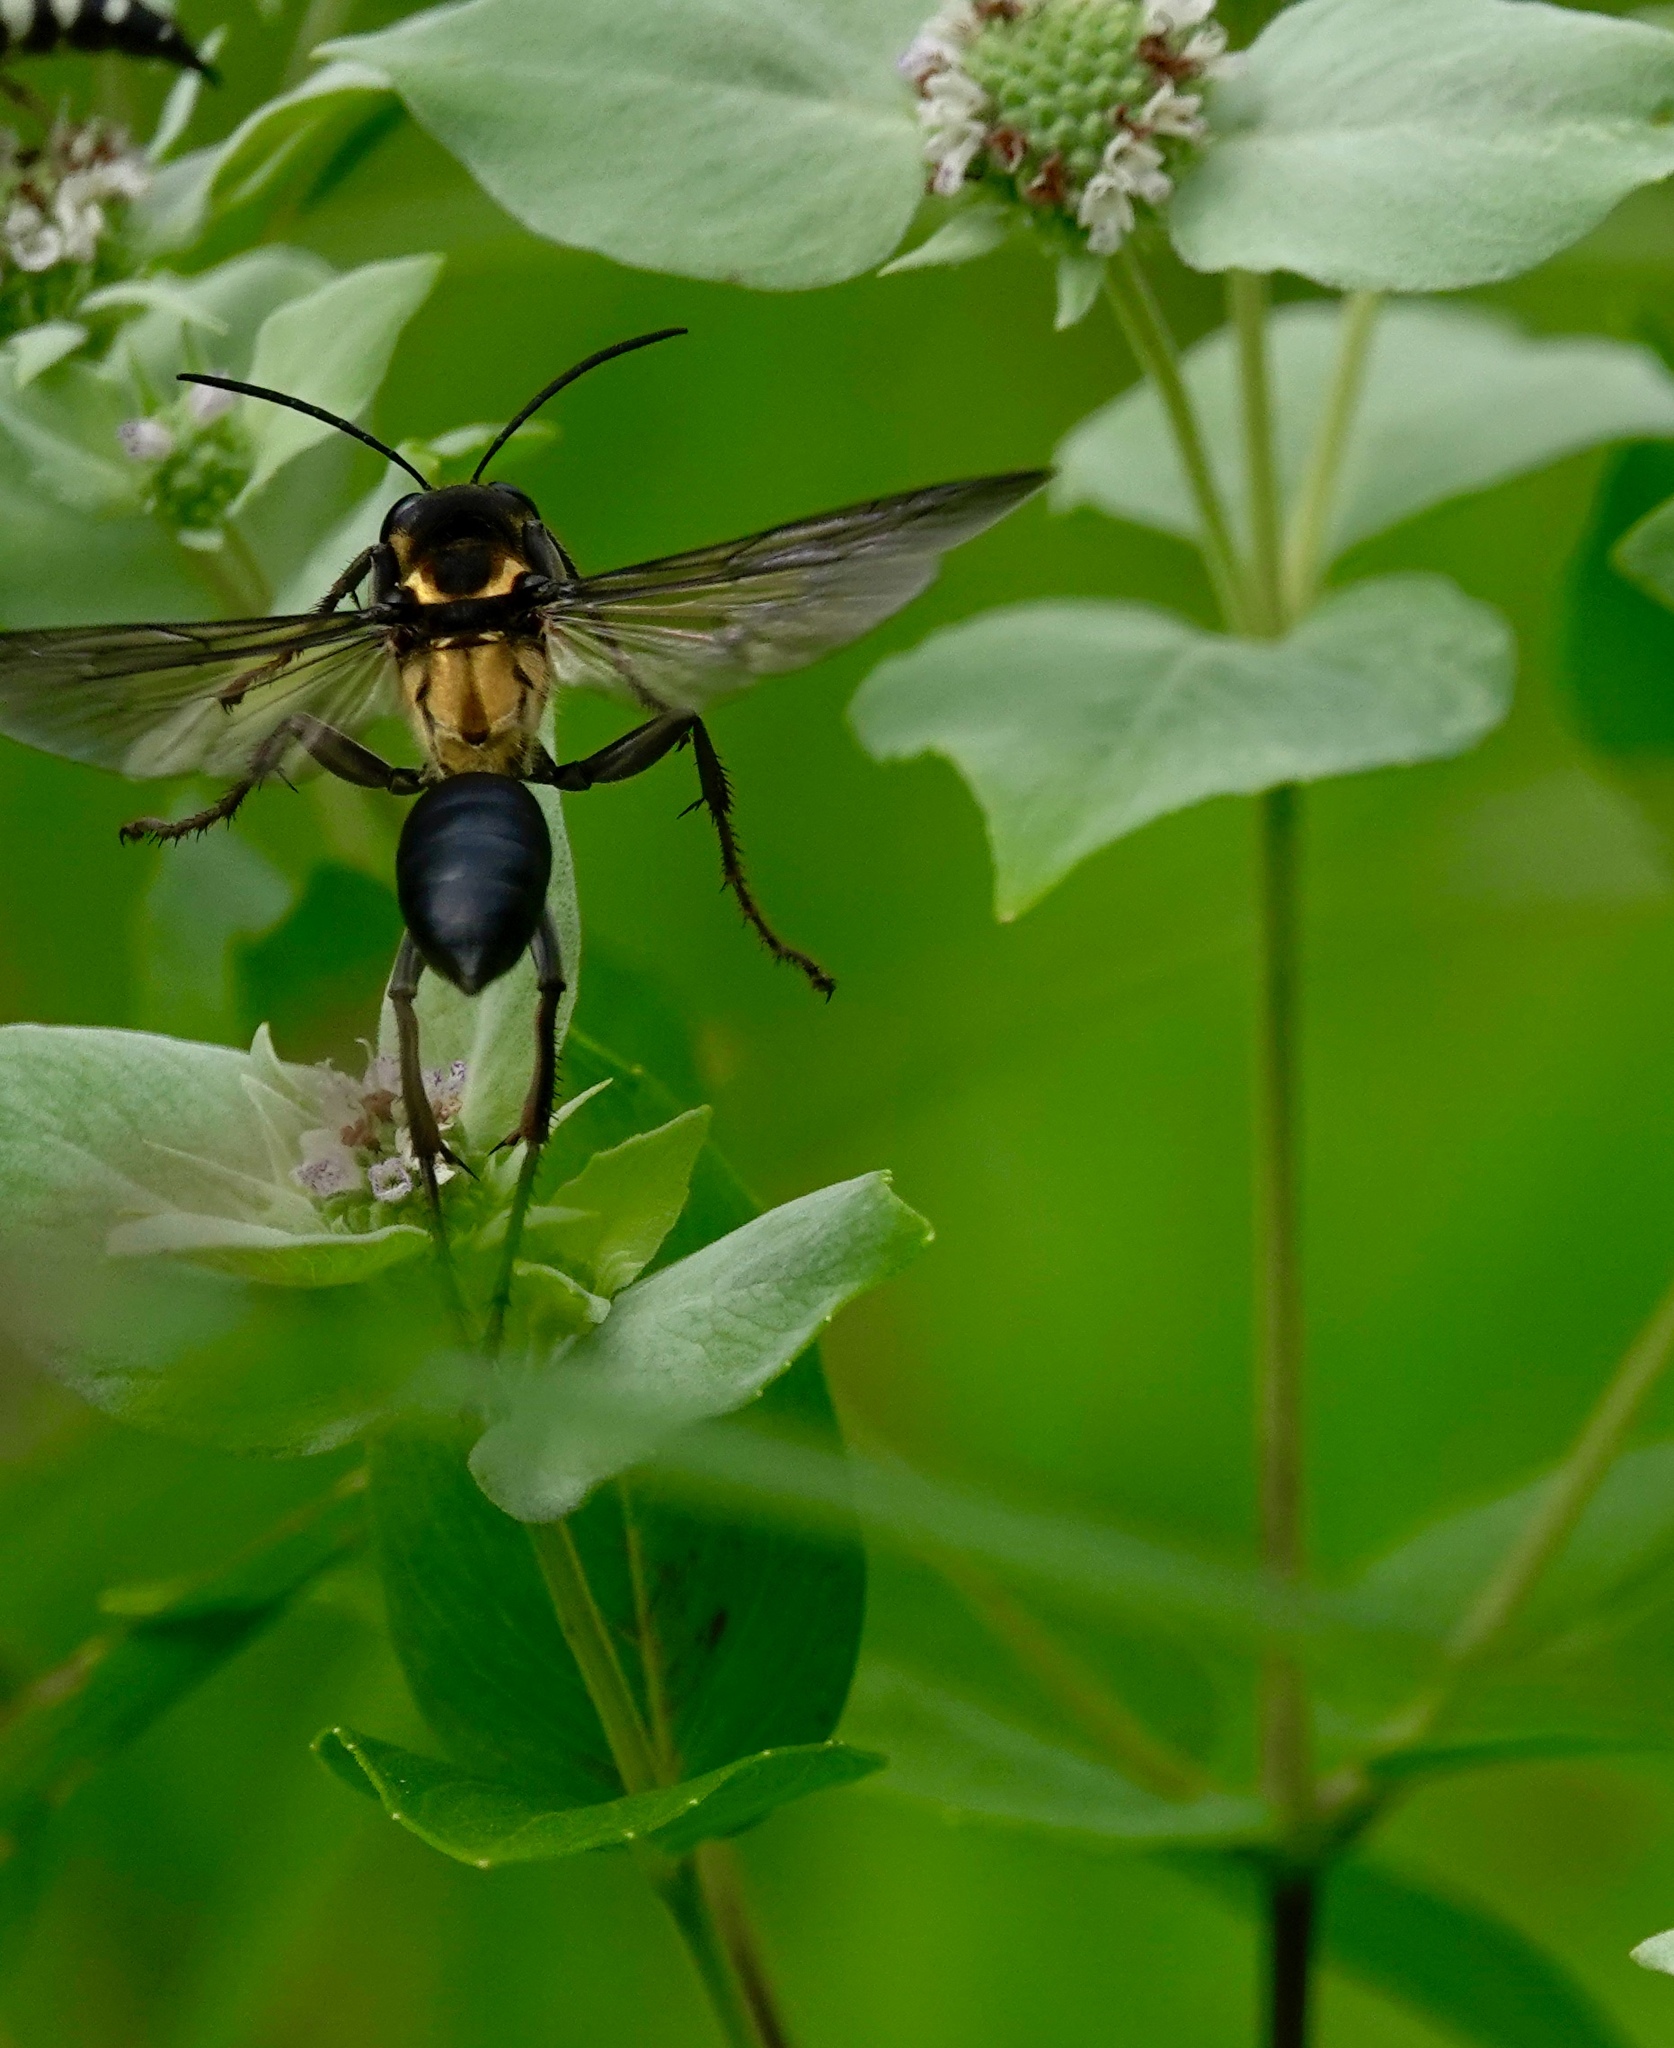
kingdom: Animalia
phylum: Arthropoda
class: Insecta
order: Hymenoptera
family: Sphecidae
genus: Sphex
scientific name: Sphex habenus
